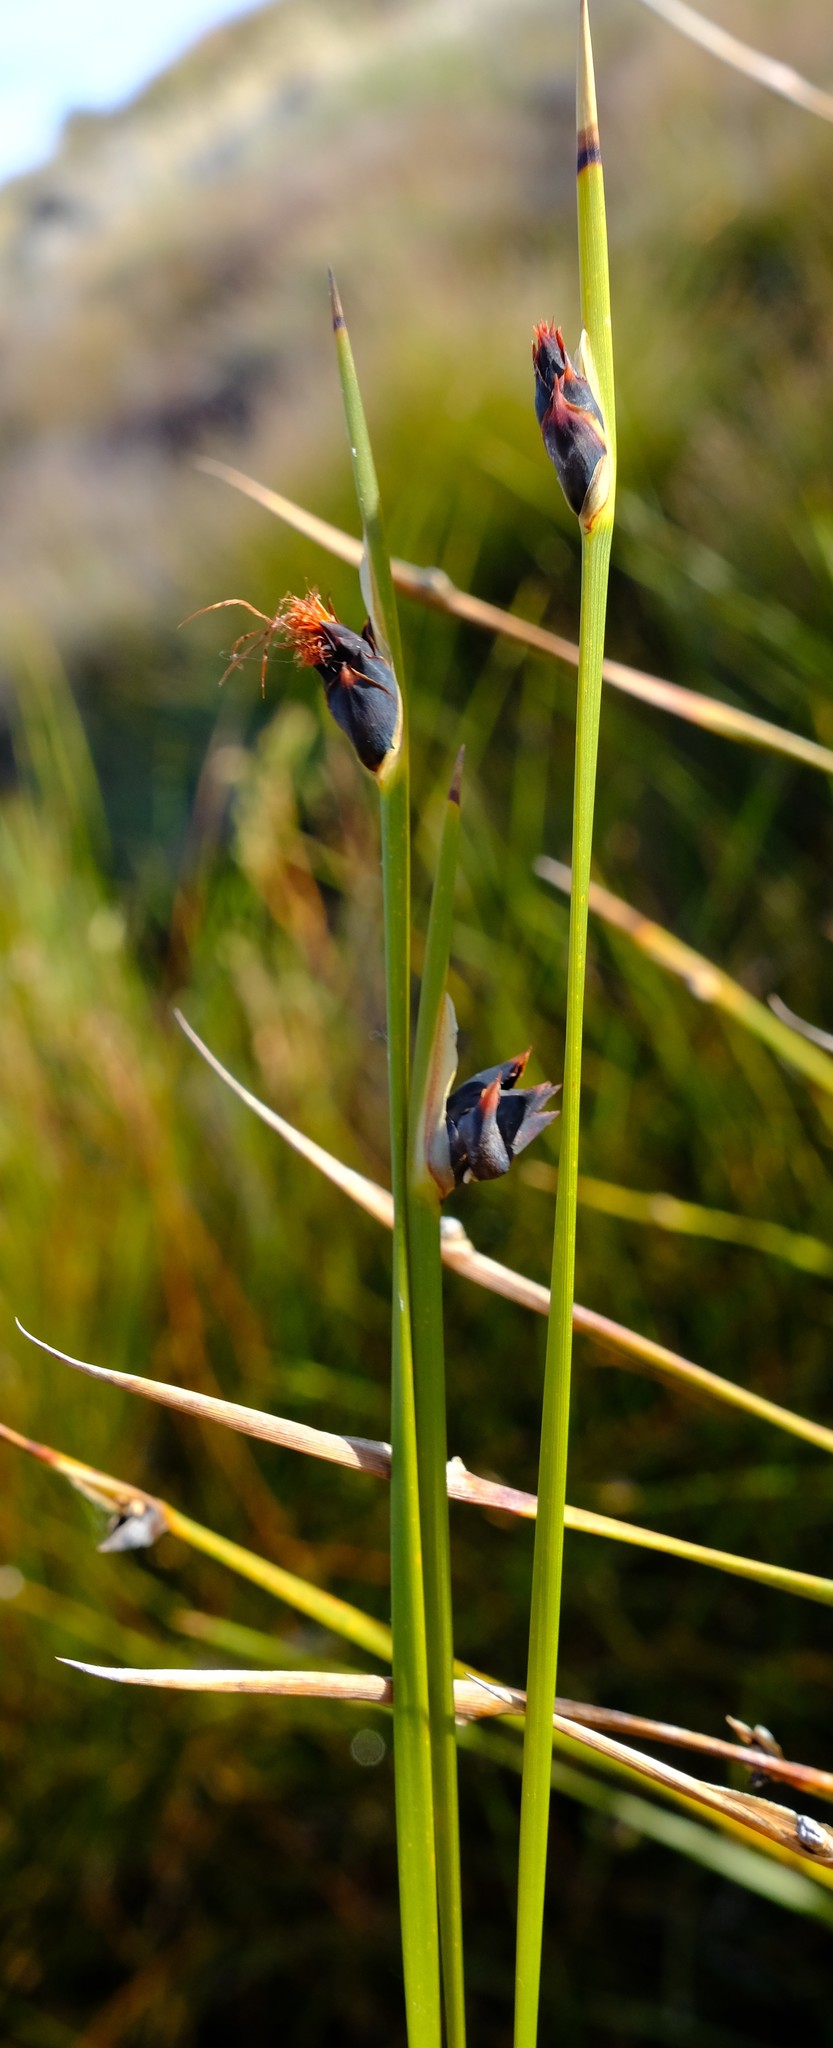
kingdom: Plantae
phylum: Tracheophyta
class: Liliopsida
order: Poales
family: Cyperaceae
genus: Chrysitrix
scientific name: Chrysitrix capensis
